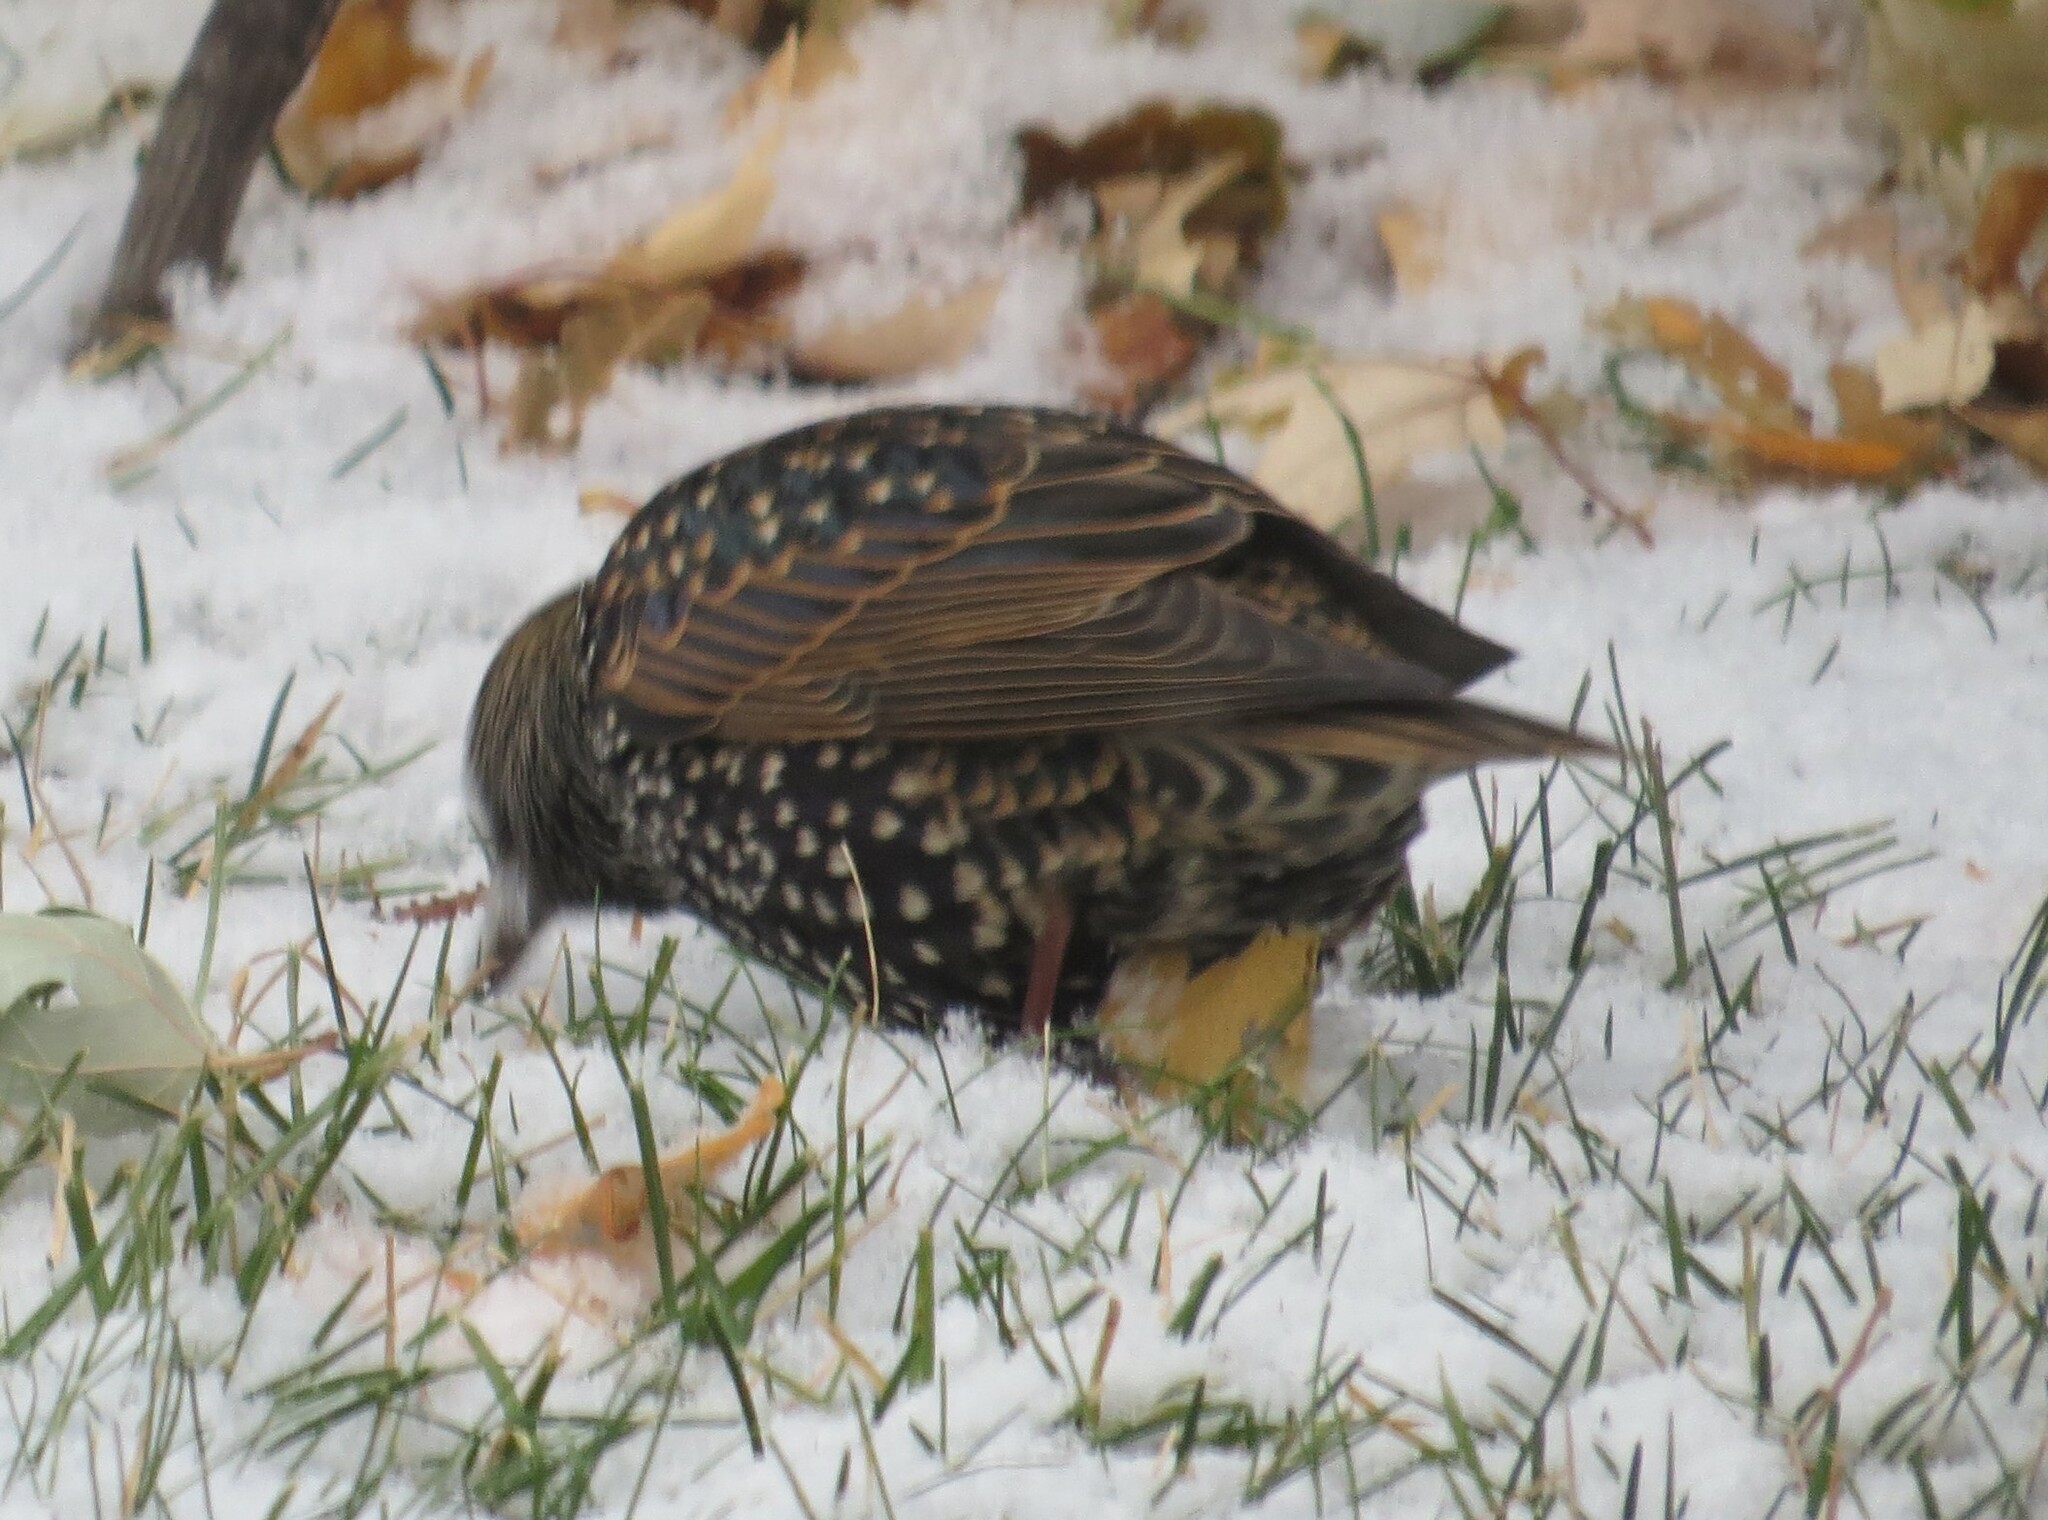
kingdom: Animalia
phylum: Chordata
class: Aves
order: Passeriformes
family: Sturnidae
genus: Sturnus
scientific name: Sturnus vulgaris
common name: Common starling
